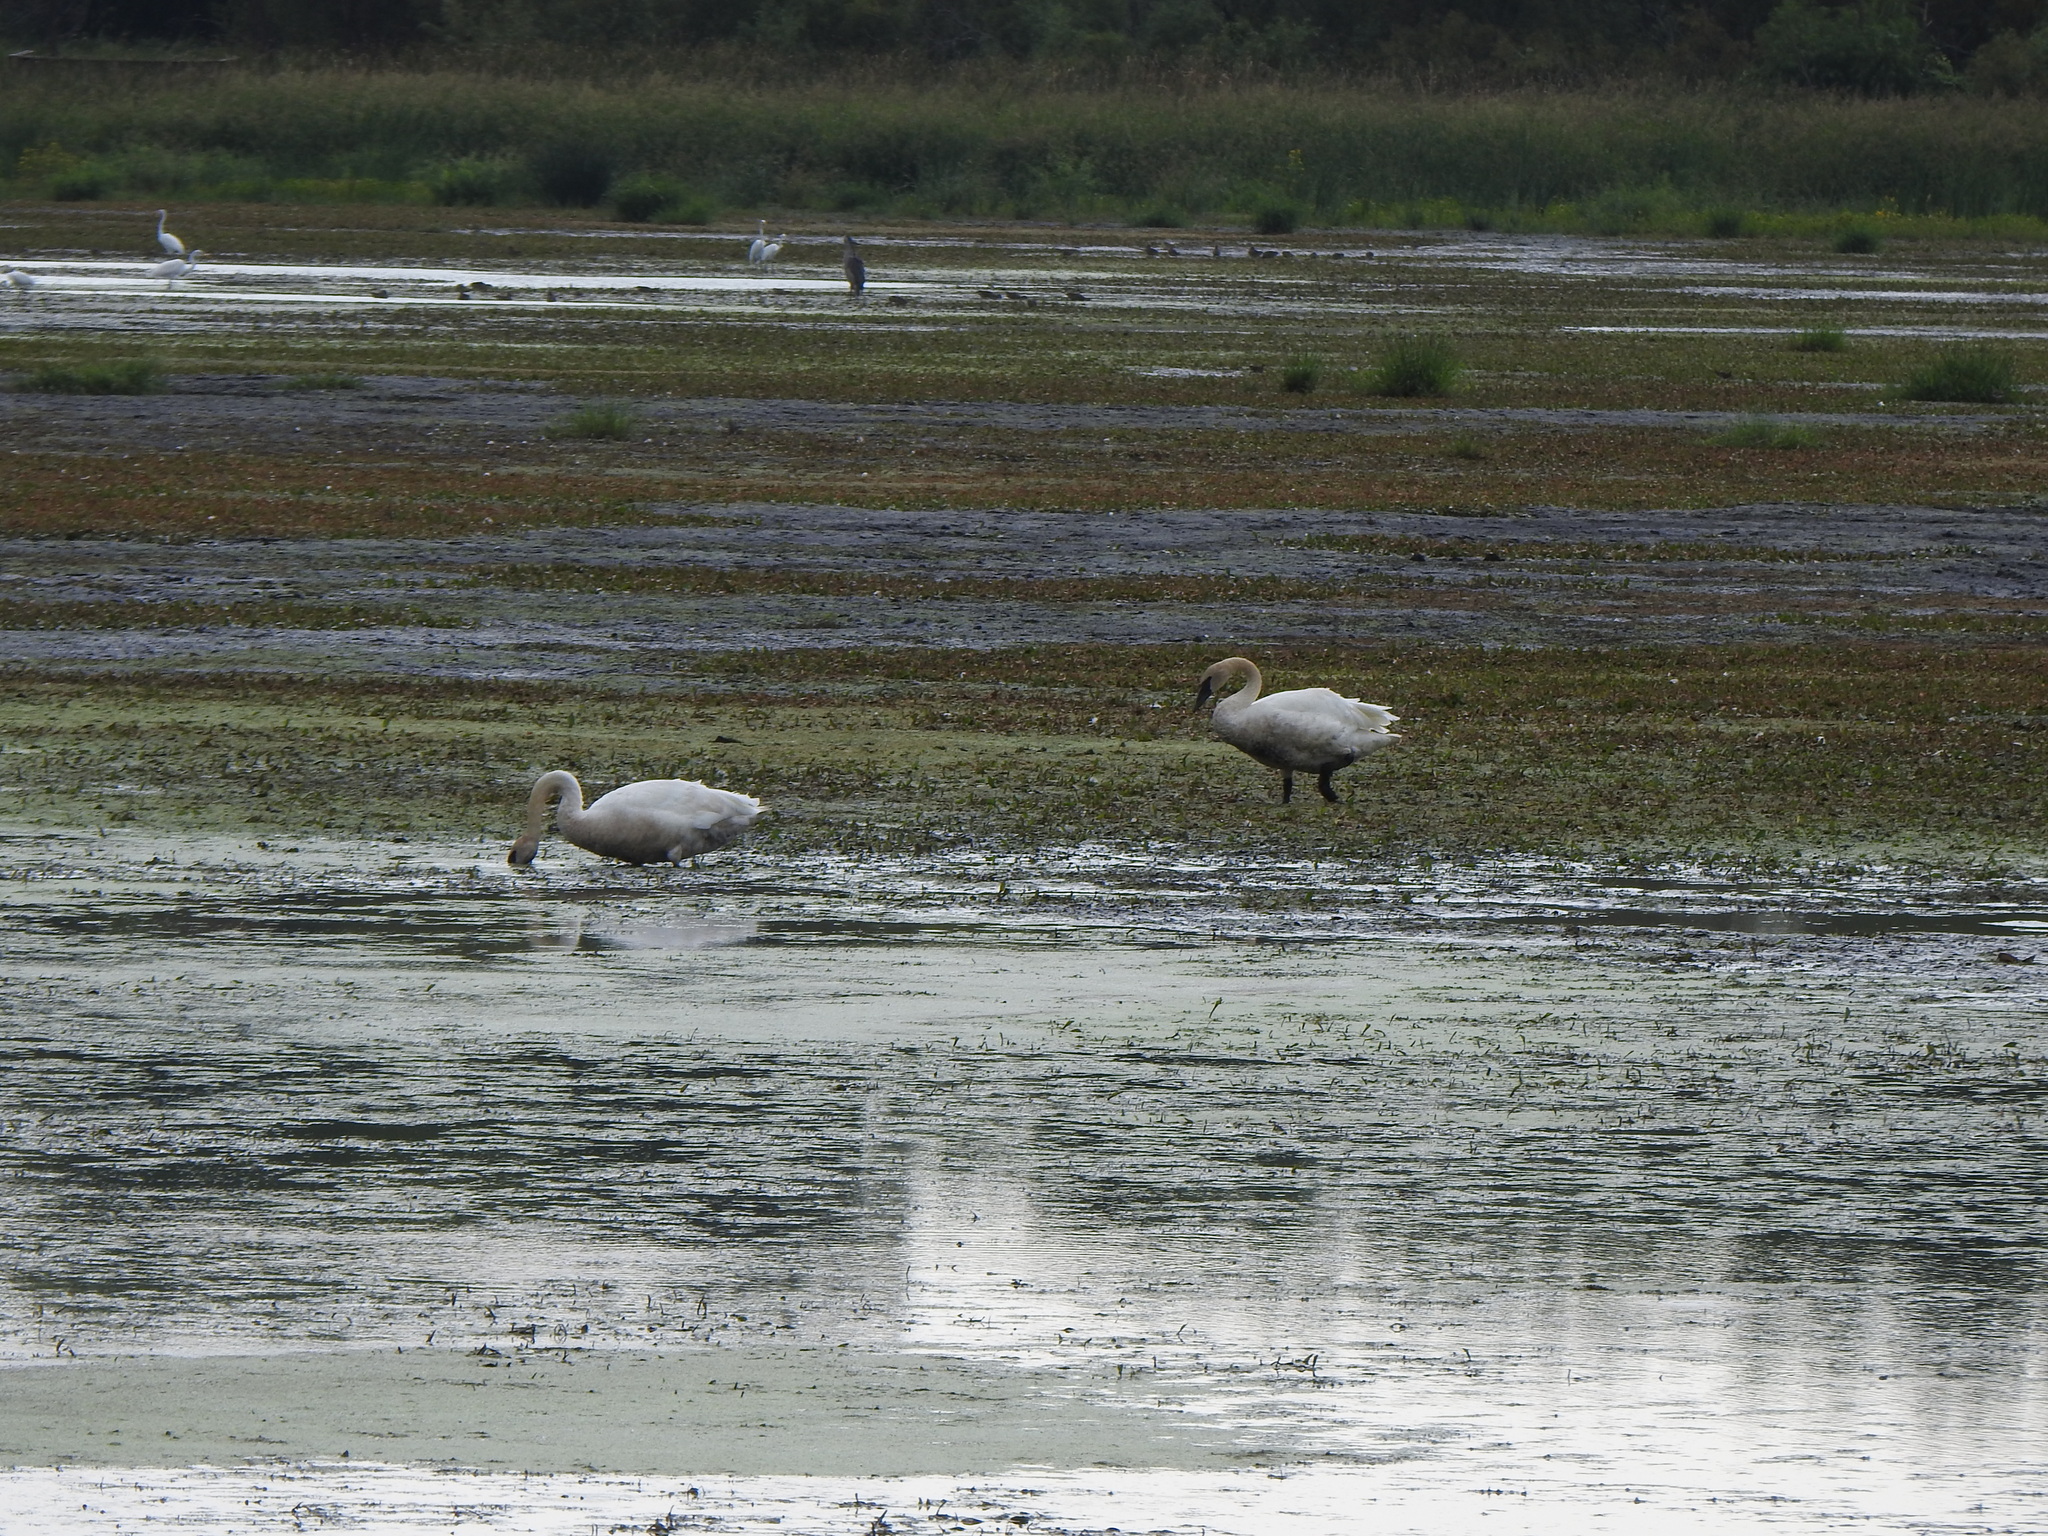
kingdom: Animalia
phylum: Chordata
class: Aves
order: Anseriformes
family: Anatidae
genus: Cygnus
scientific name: Cygnus buccinator
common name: Trumpeter swan
